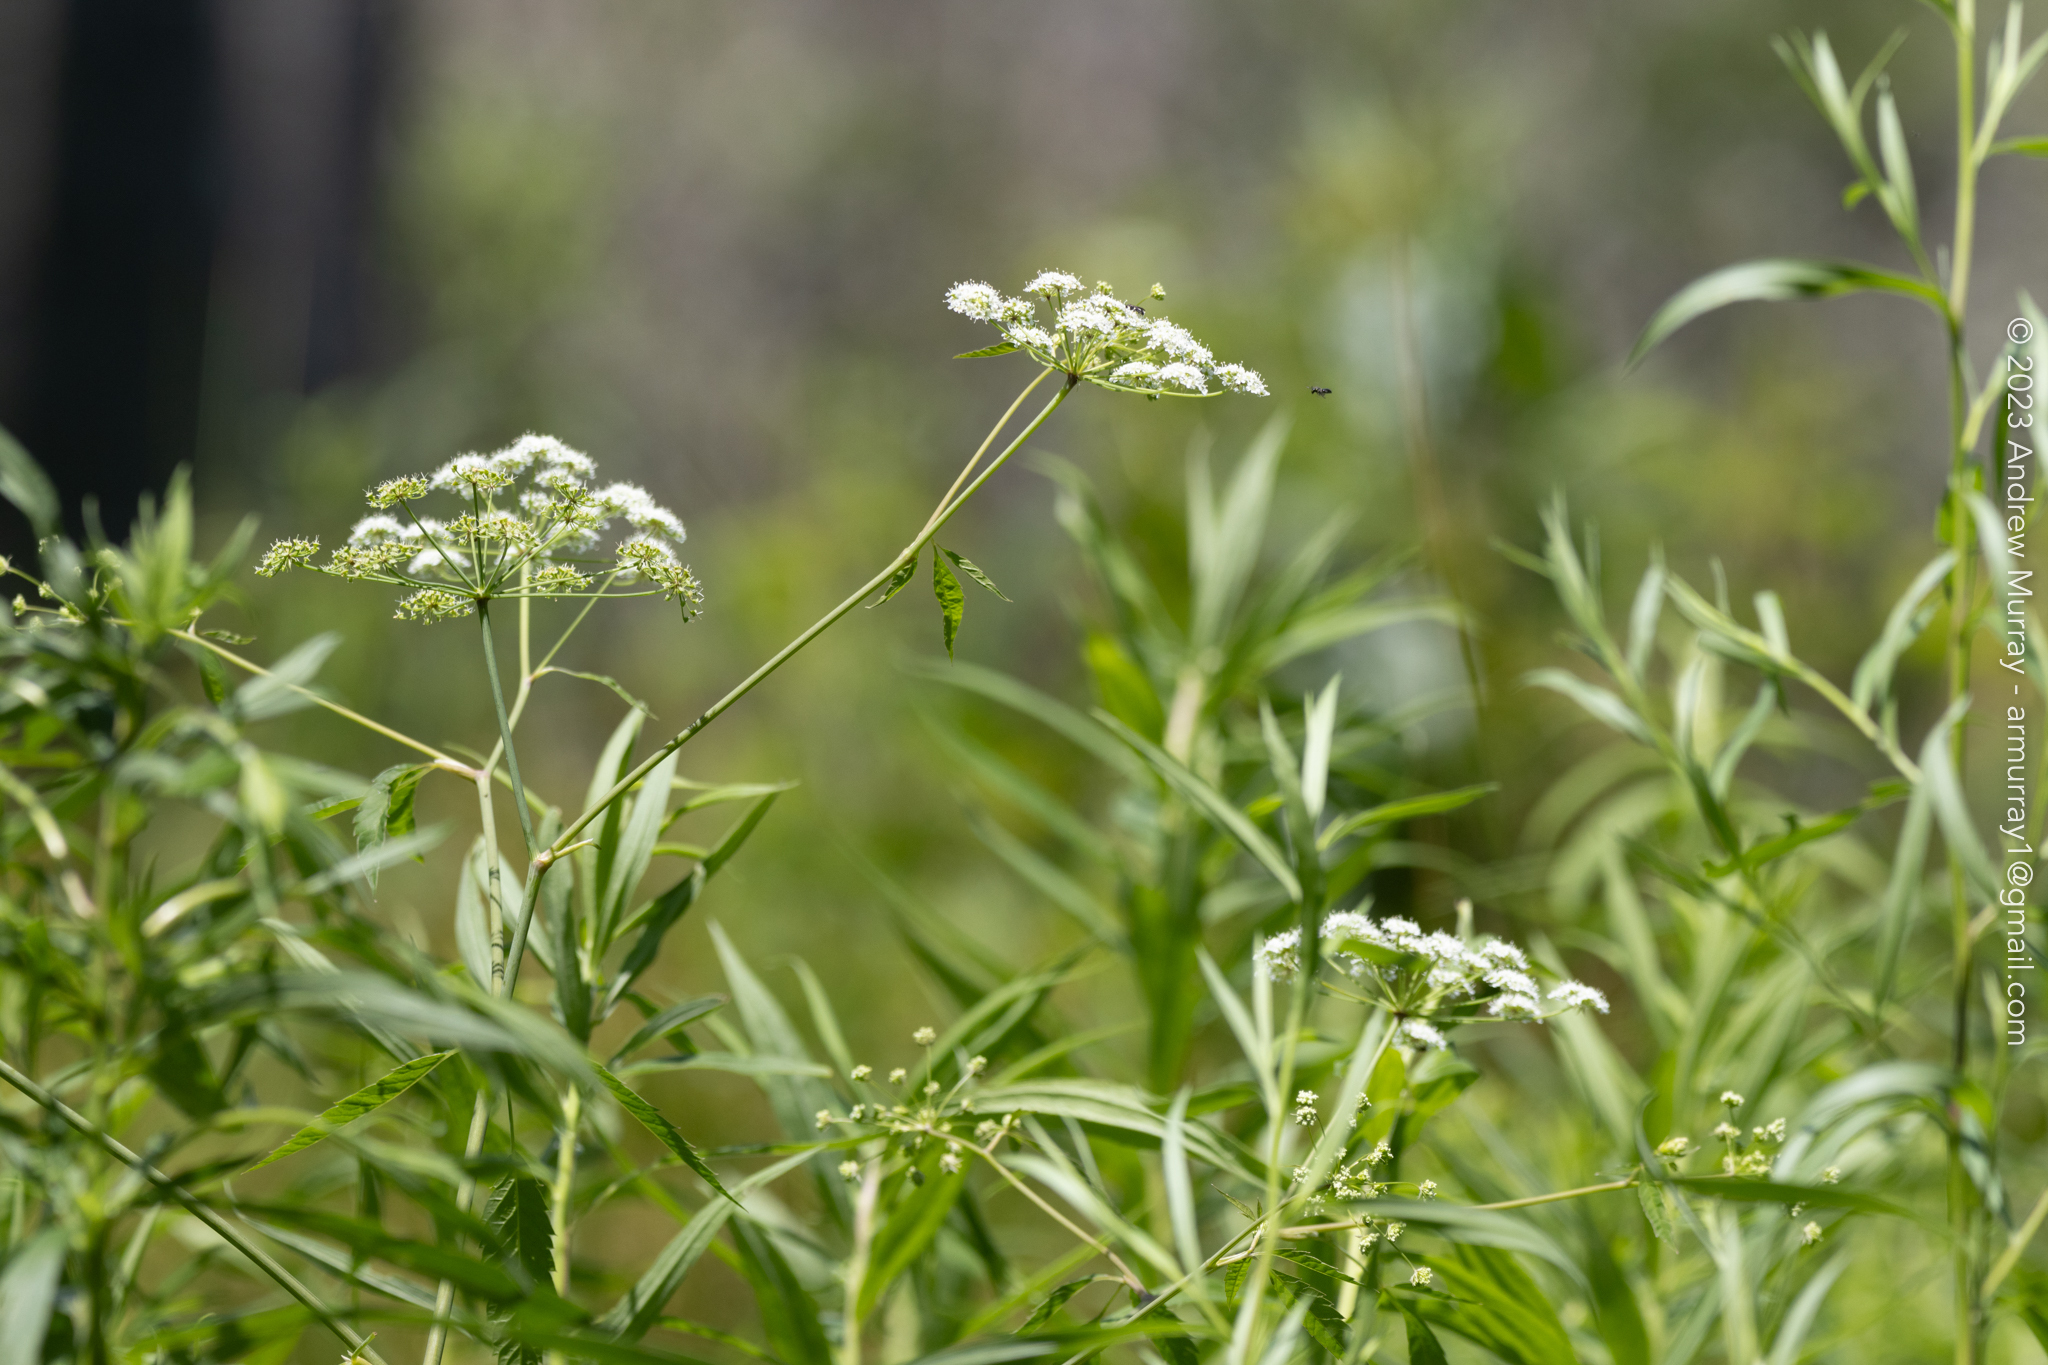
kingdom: Plantae
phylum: Tracheophyta
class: Magnoliopsida
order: Apiales
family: Apiaceae
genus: Cicuta
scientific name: Cicuta maculata
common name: Spotted cowbane
